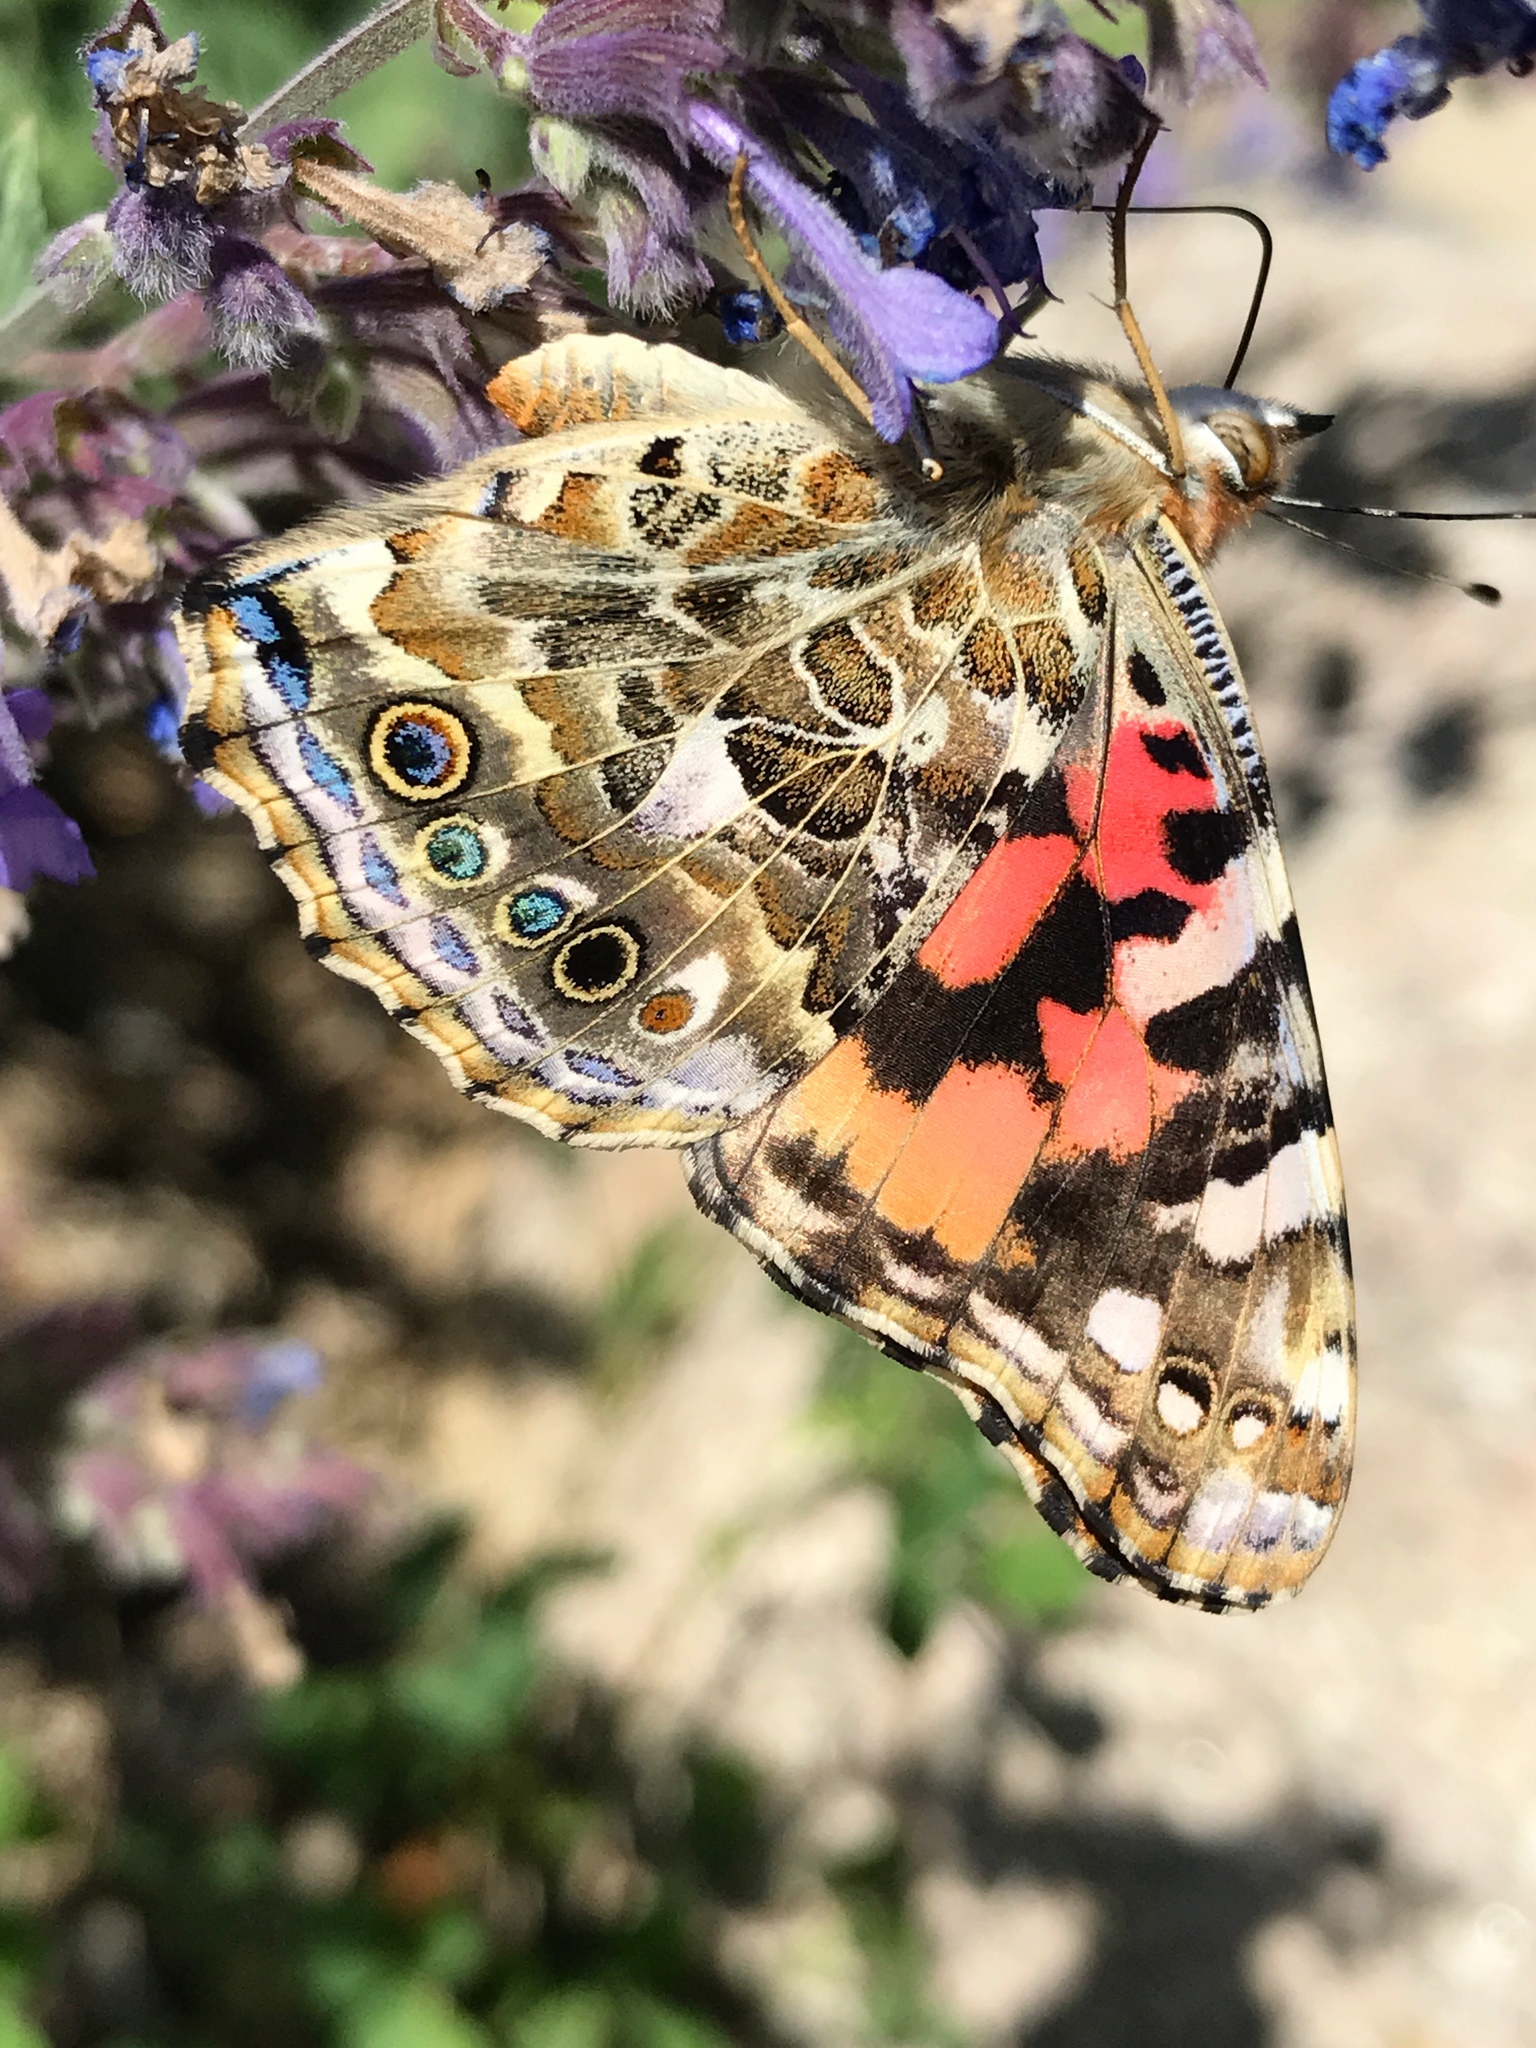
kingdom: Animalia
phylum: Arthropoda
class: Insecta
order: Lepidoptera
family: Nymphalidae
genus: Vanessa
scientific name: Vanessa cardui
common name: Painted lady
